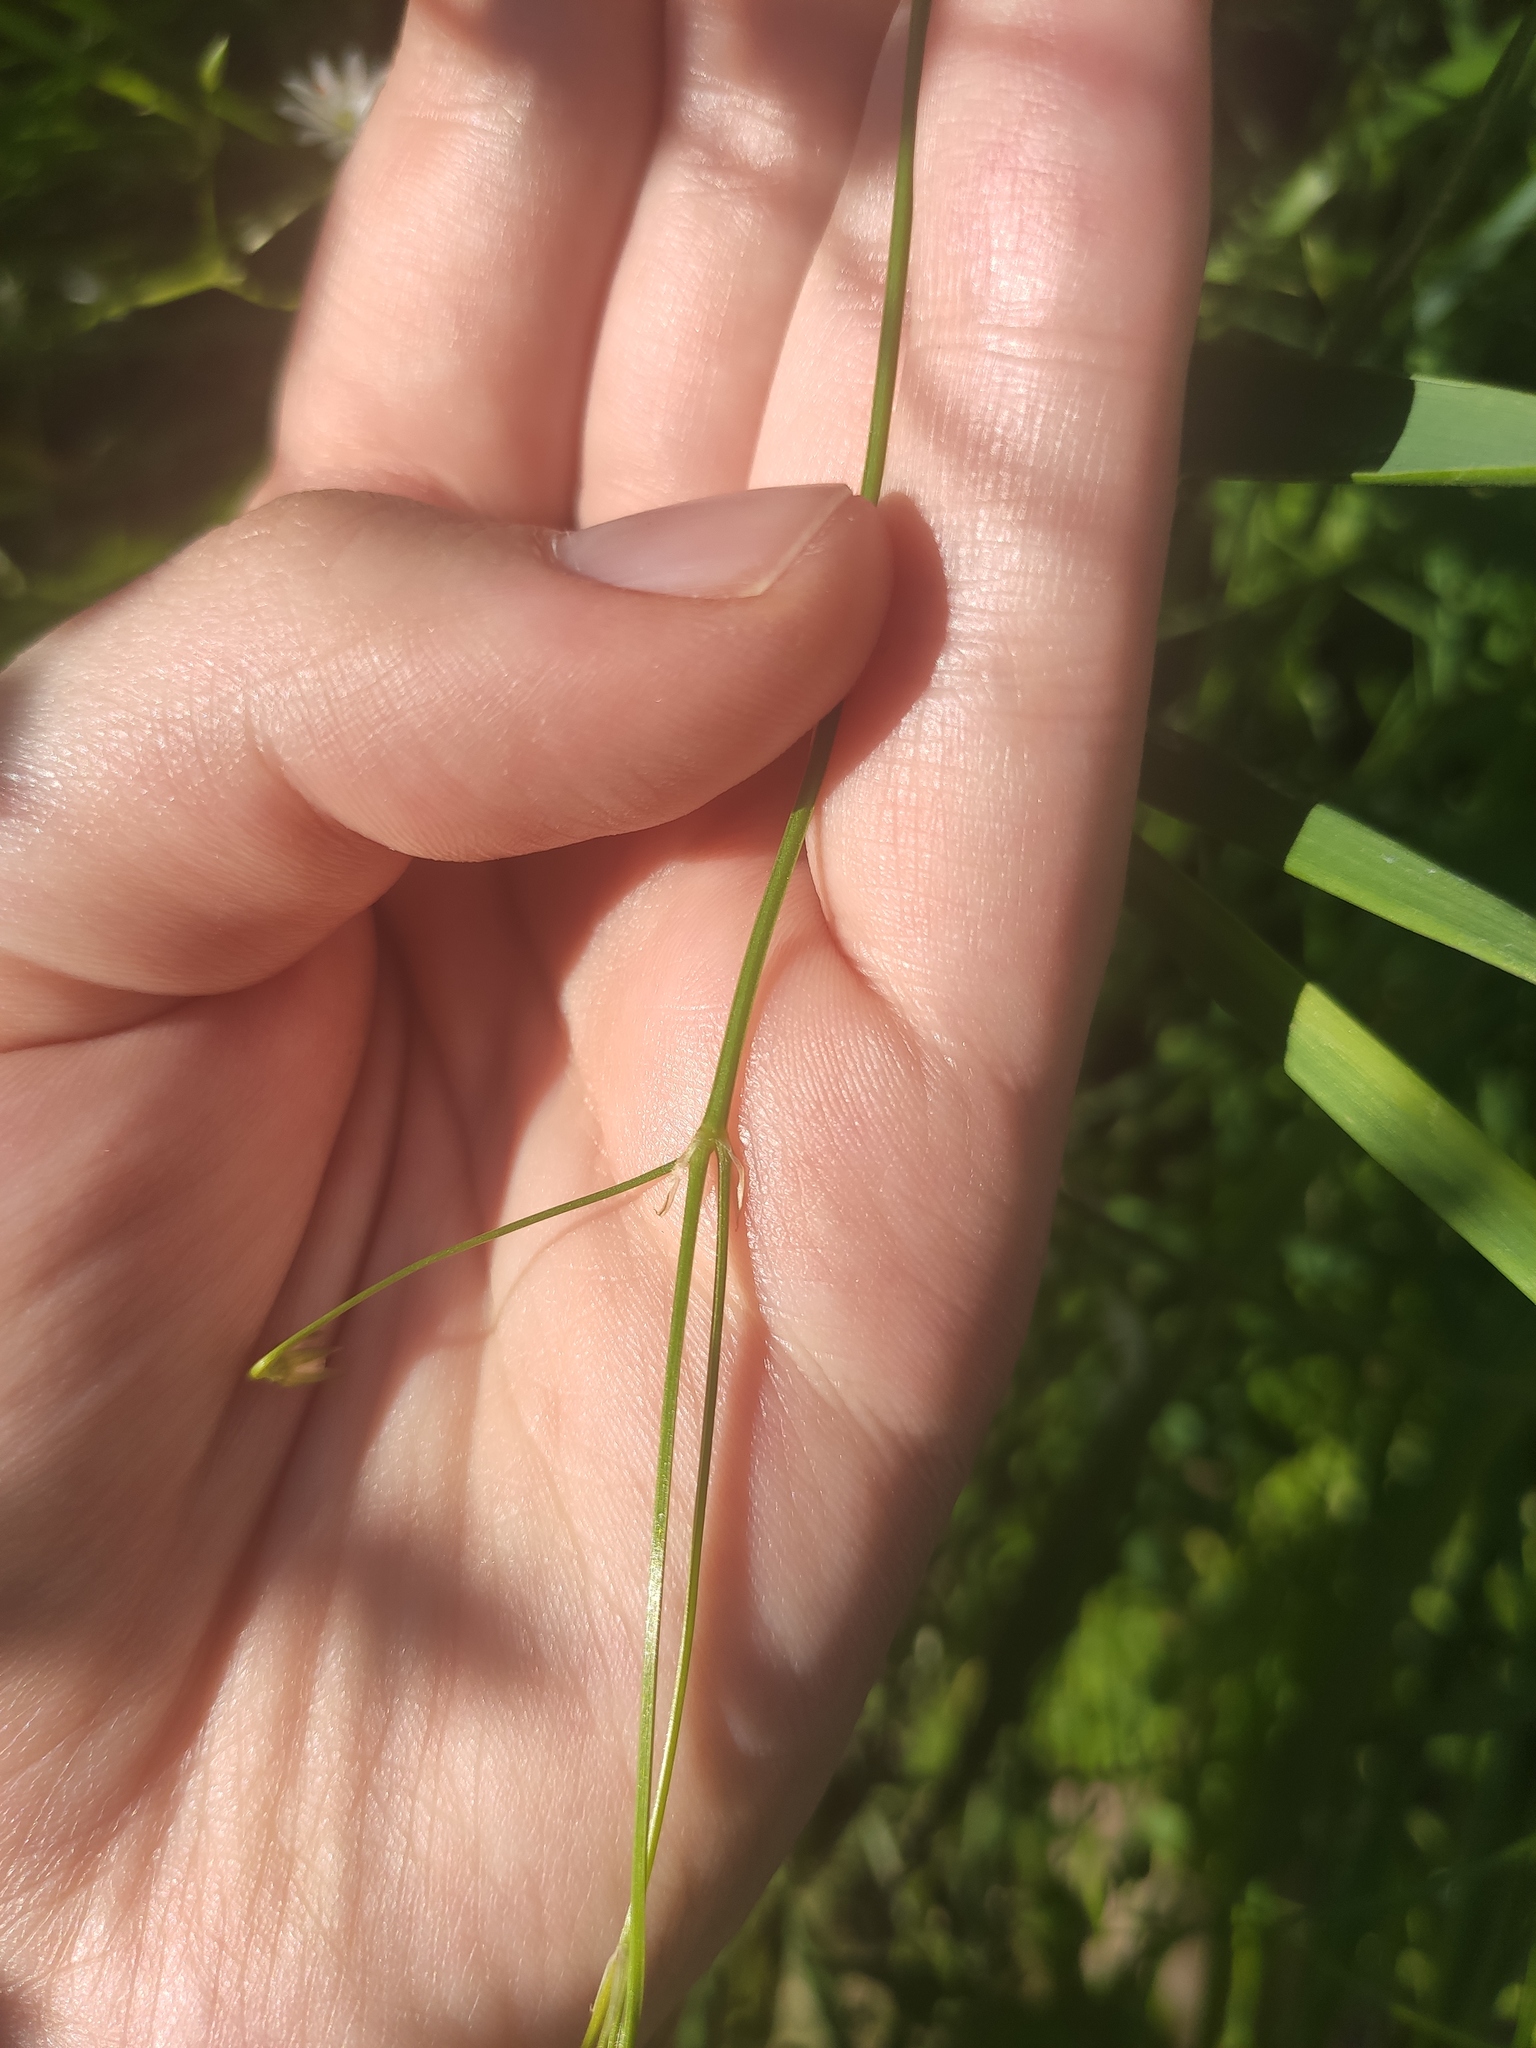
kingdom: Plantae
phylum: Tracheophyta
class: Magnoliopsida
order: Caryophyllales
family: Caryophyllaceae
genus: Stellaria
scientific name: Stellaria graminea
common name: Grass-like starwort
